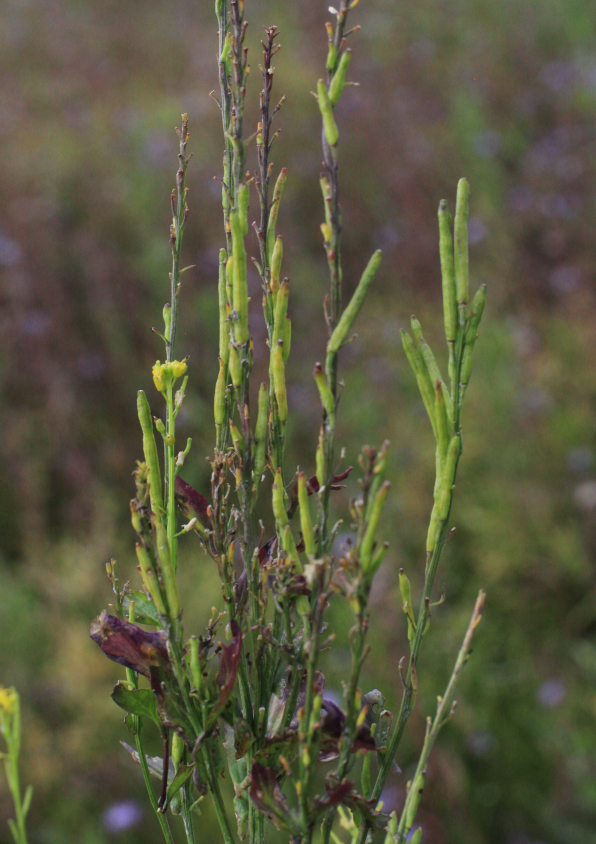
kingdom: Plantae
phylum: Tracheophyta
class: Magnoliopsida
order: Brassicales
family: Brassicaceae
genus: Barbarea
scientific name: Barbarea stricta
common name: Small-flowered winter-cress
